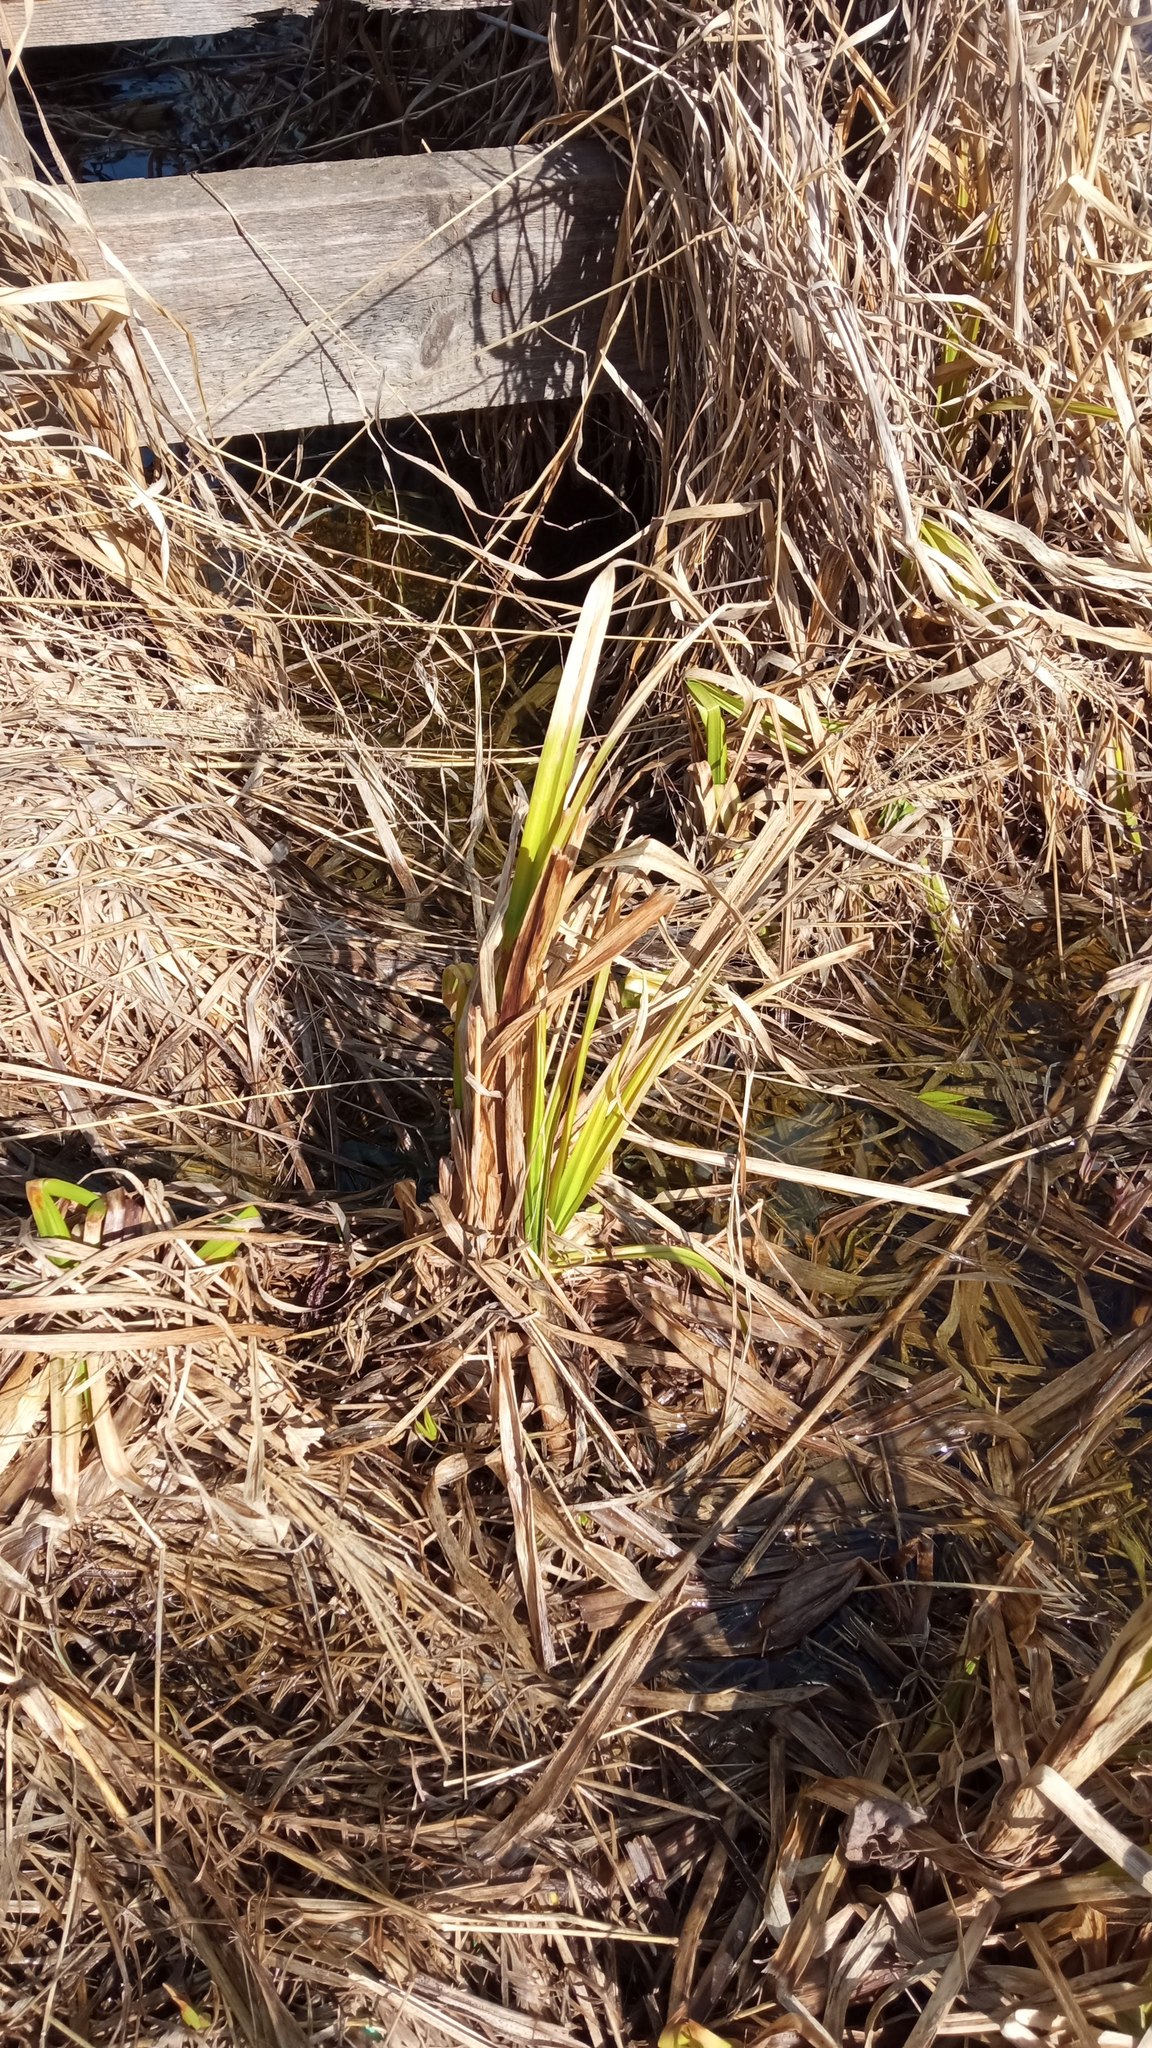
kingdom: Plantae
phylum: Tracheophyta
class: Liliopsida
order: Poales
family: Cyperaceae
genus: Scirpus
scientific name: Scirpus sylvaticus
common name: Wood club-rush
